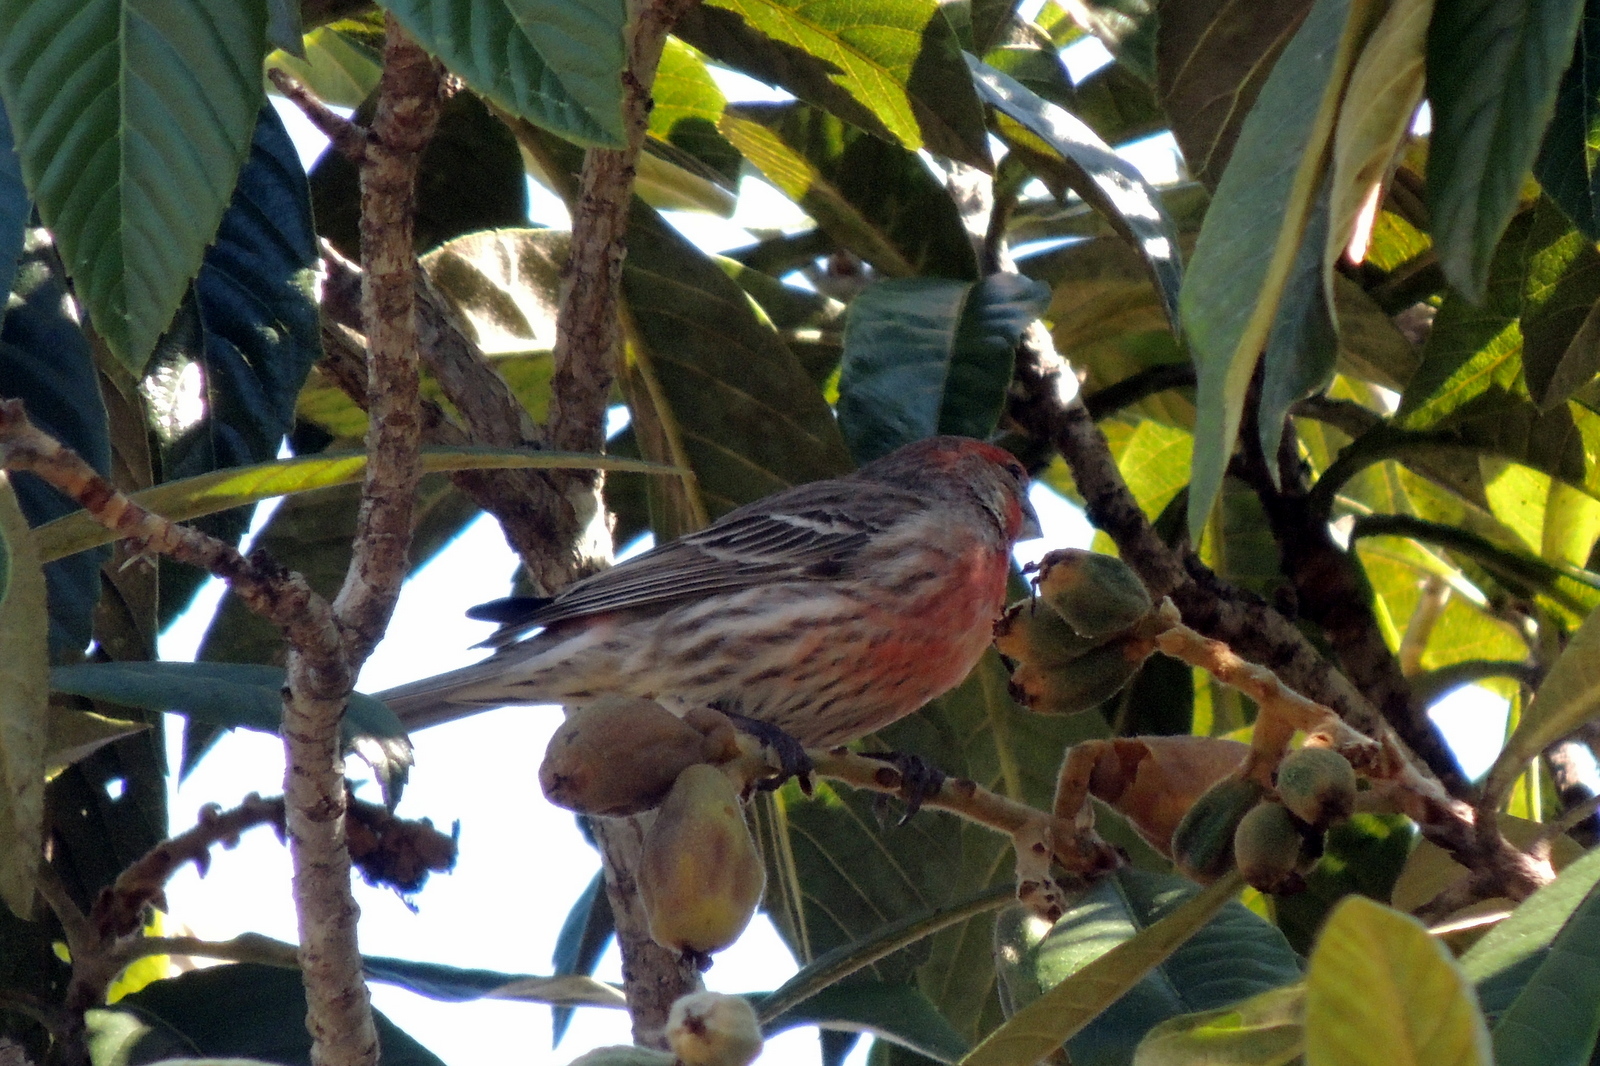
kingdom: Animalia
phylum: Chordata
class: Aves
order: Passeriformes
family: Fringillidae
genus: Haemorhous
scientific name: Haemorhous mexicanus
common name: House finch
